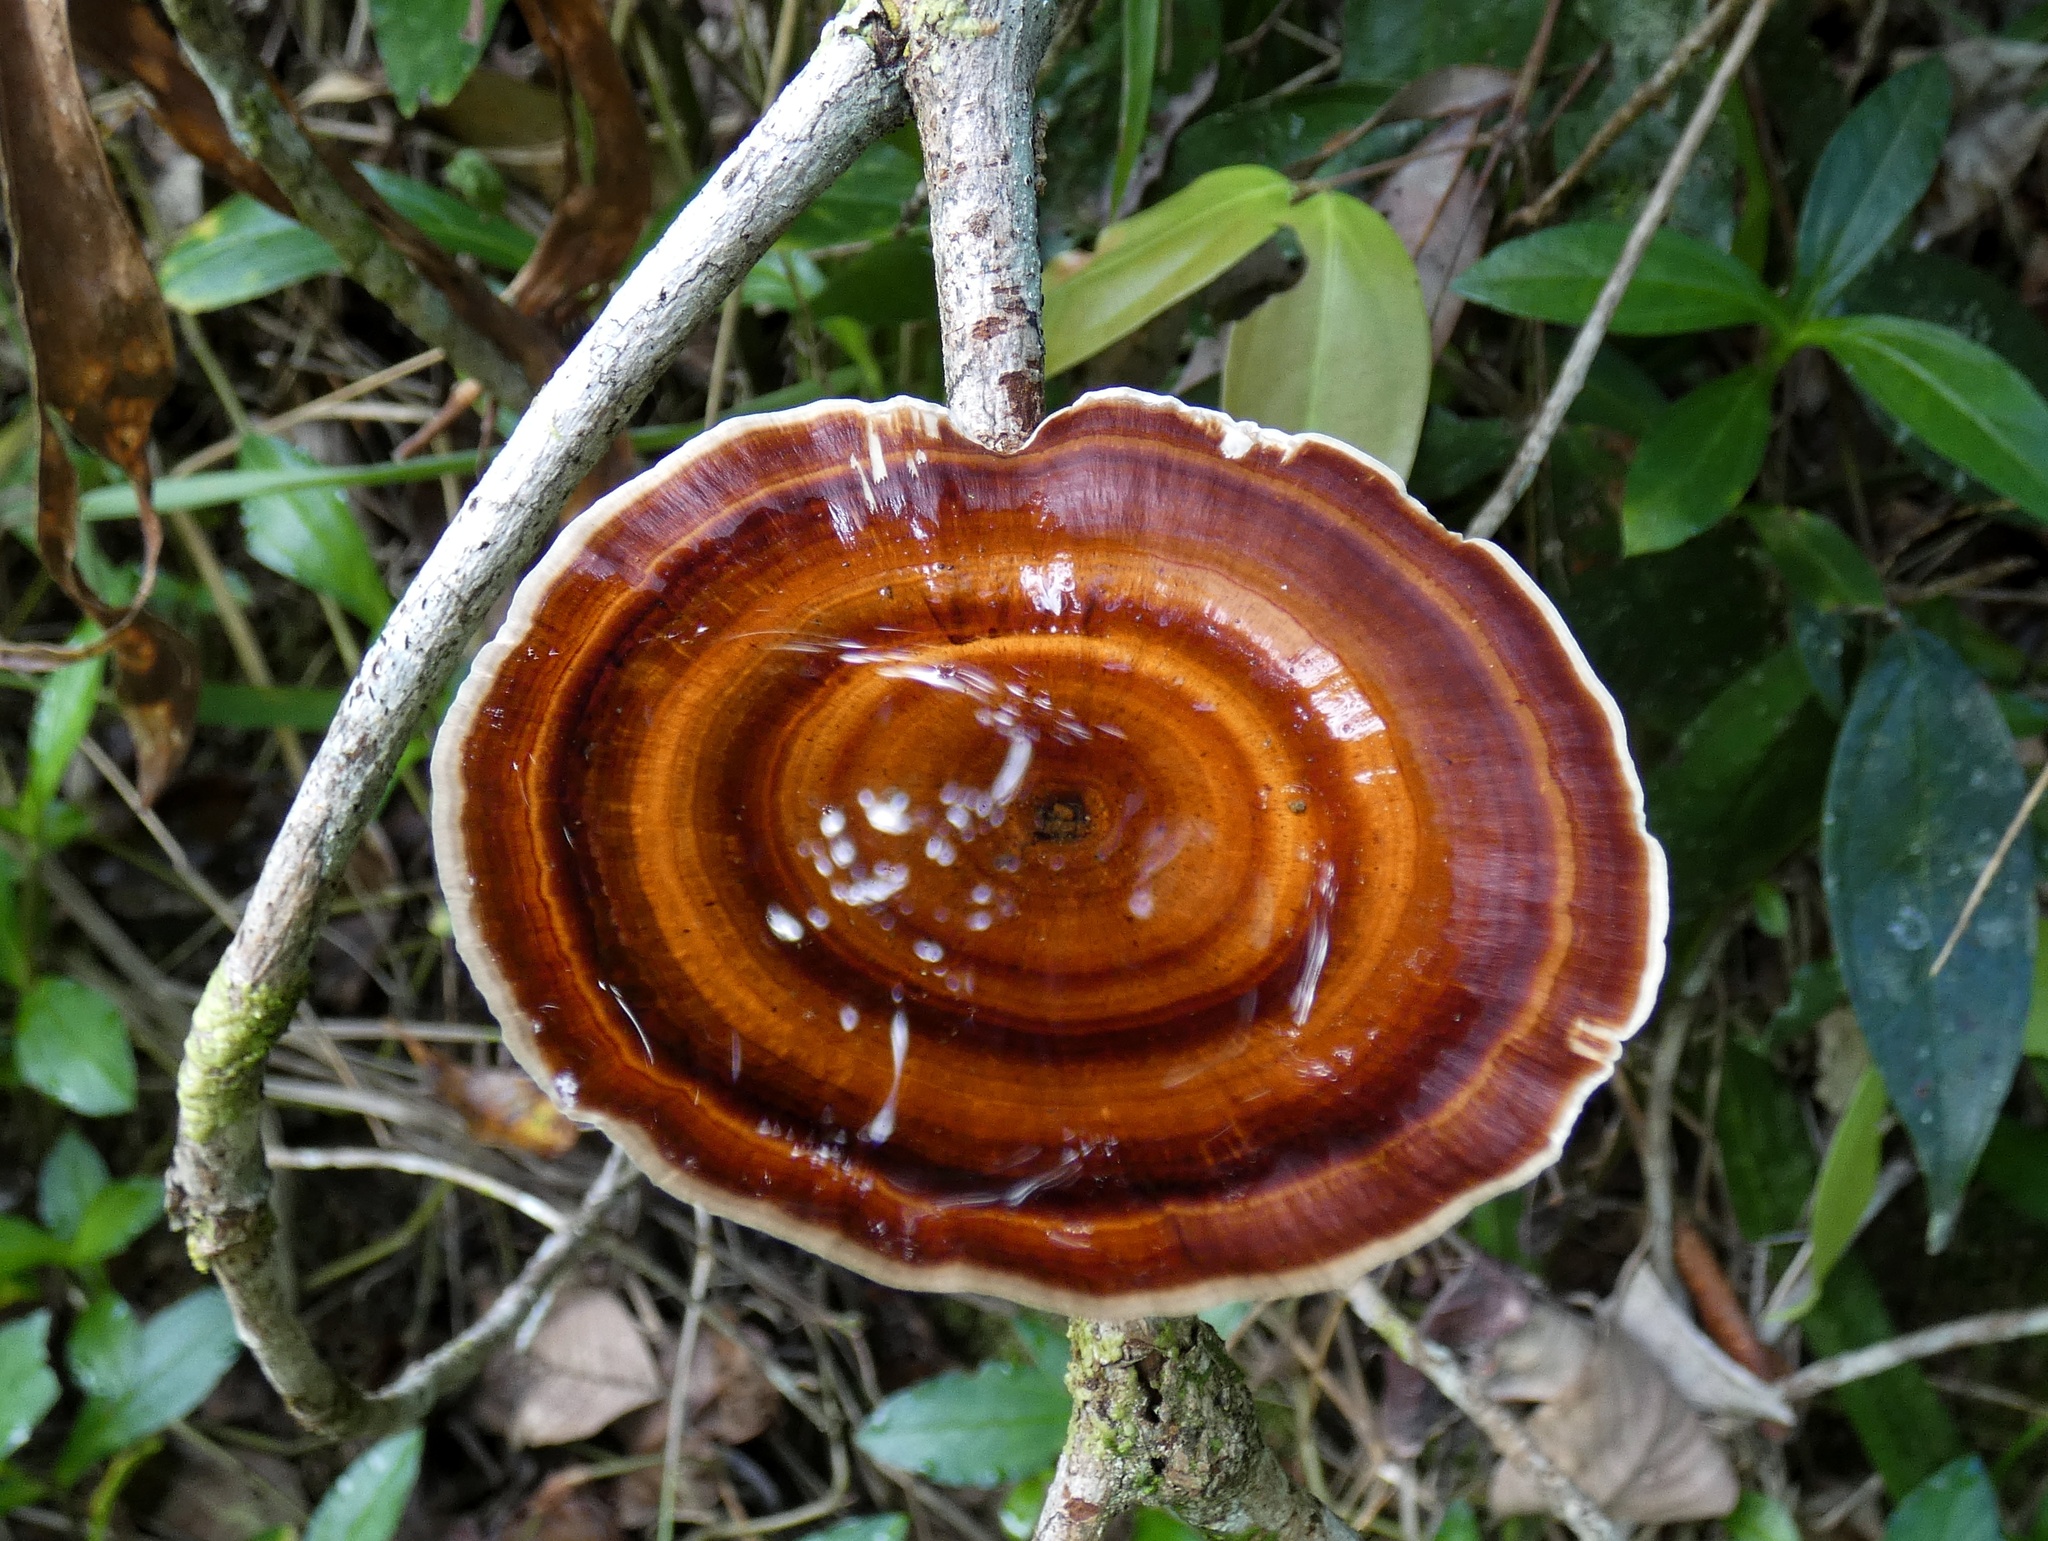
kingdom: Fungi
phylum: Basidiomycota
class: Agaricomycetes
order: Polyporales
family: Polyporaceae
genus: Microporus
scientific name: Microporus xanthopus
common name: Yellow-stemmed micropore
